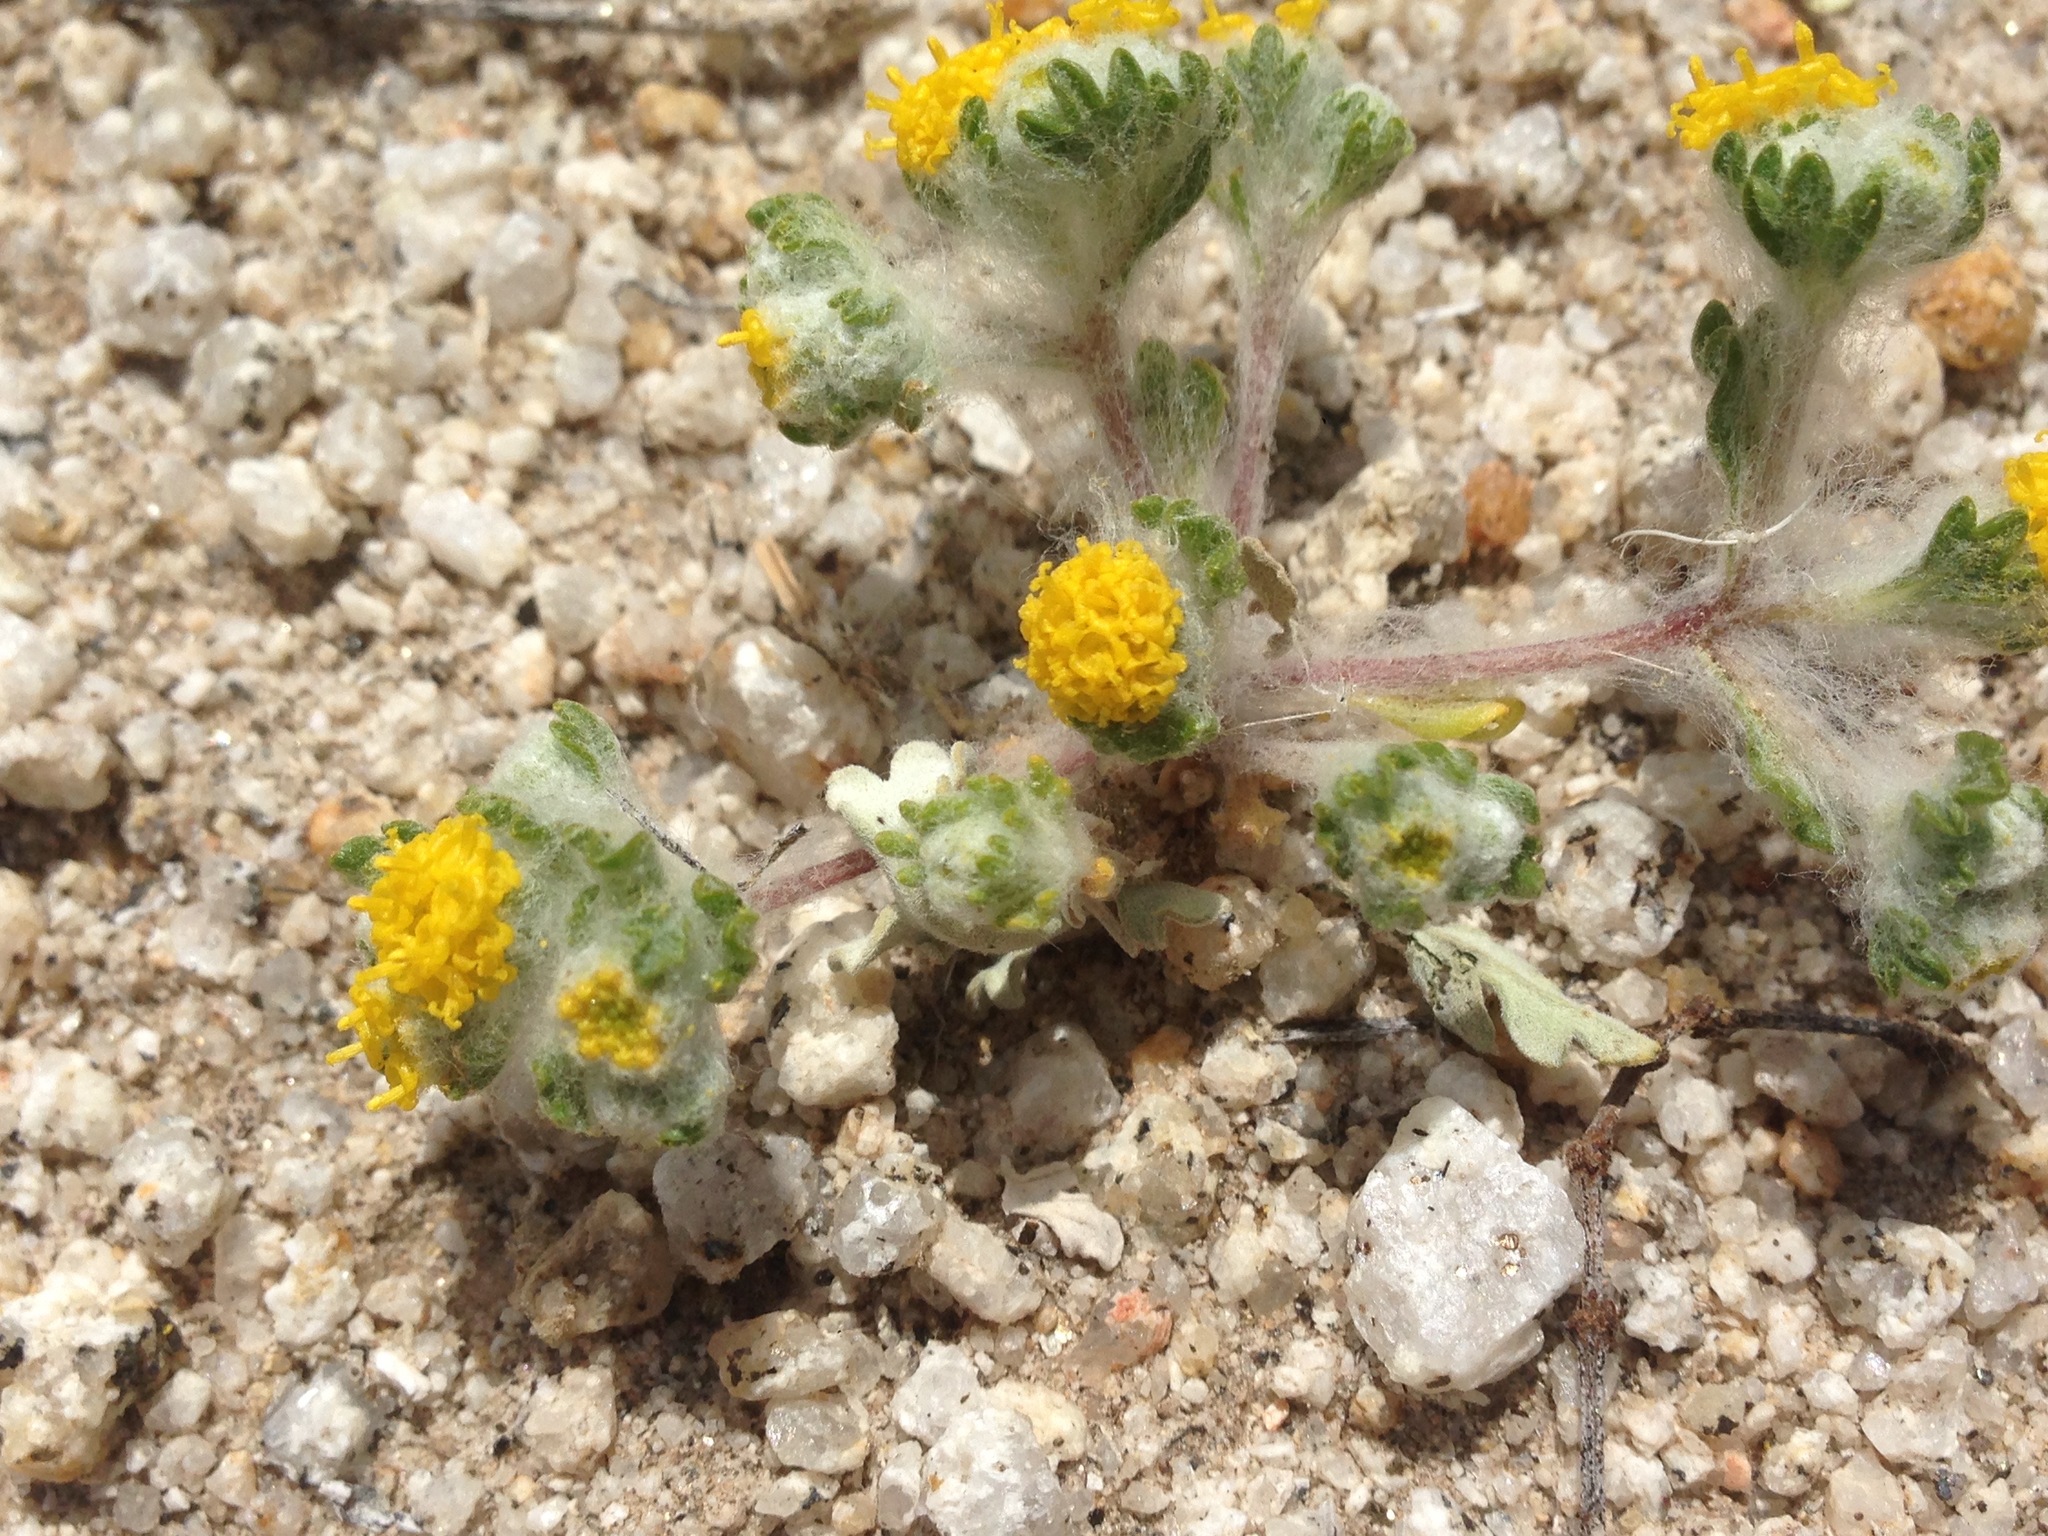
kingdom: Plantae
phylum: Tracheophyta
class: Magnoliopsida
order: Asterales
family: Asteraceae
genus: Eriophyllum
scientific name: Eriophyllum pringlei
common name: Pringle's woolly-sunflower
